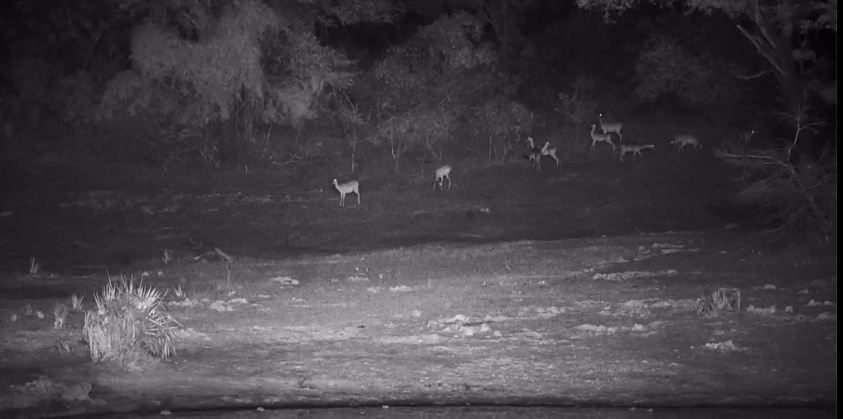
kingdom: Animalia
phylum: Chordata
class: Mammalia
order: Artiodactyla
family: Bovidae
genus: Aepyceros
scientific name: Aepyceros melampus
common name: Impala
